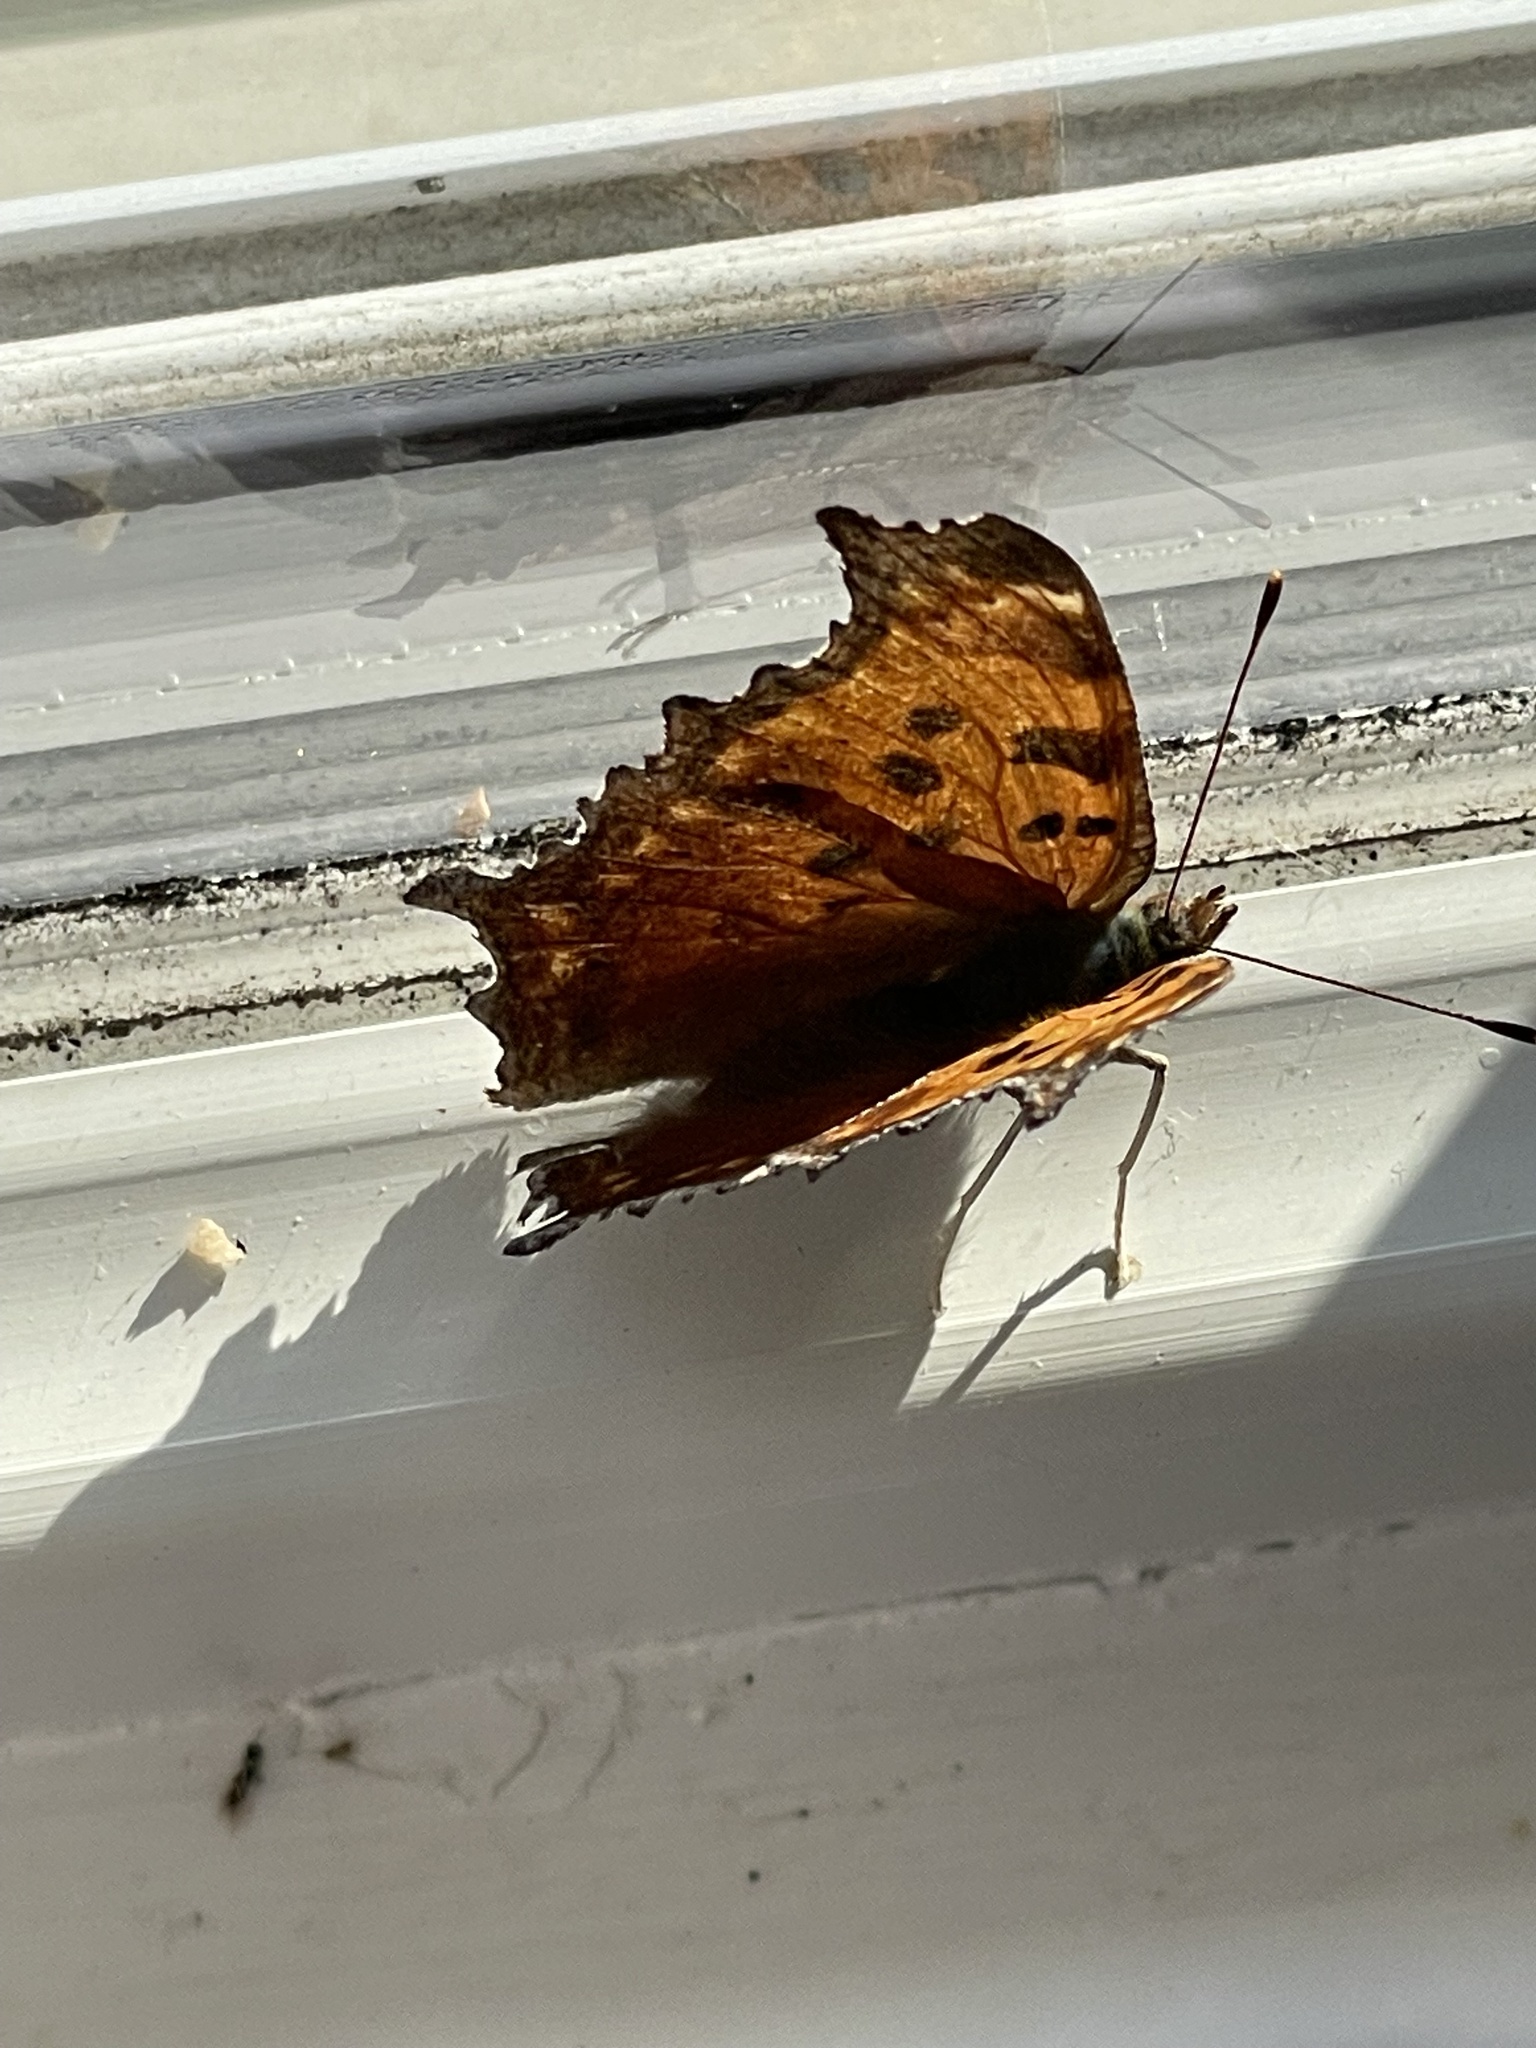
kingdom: Animalia
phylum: Arthropoda
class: Insecta
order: Lepidoptera
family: Nymphalidae
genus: Polygonia
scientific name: Polygonia comma
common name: Eastern comma
